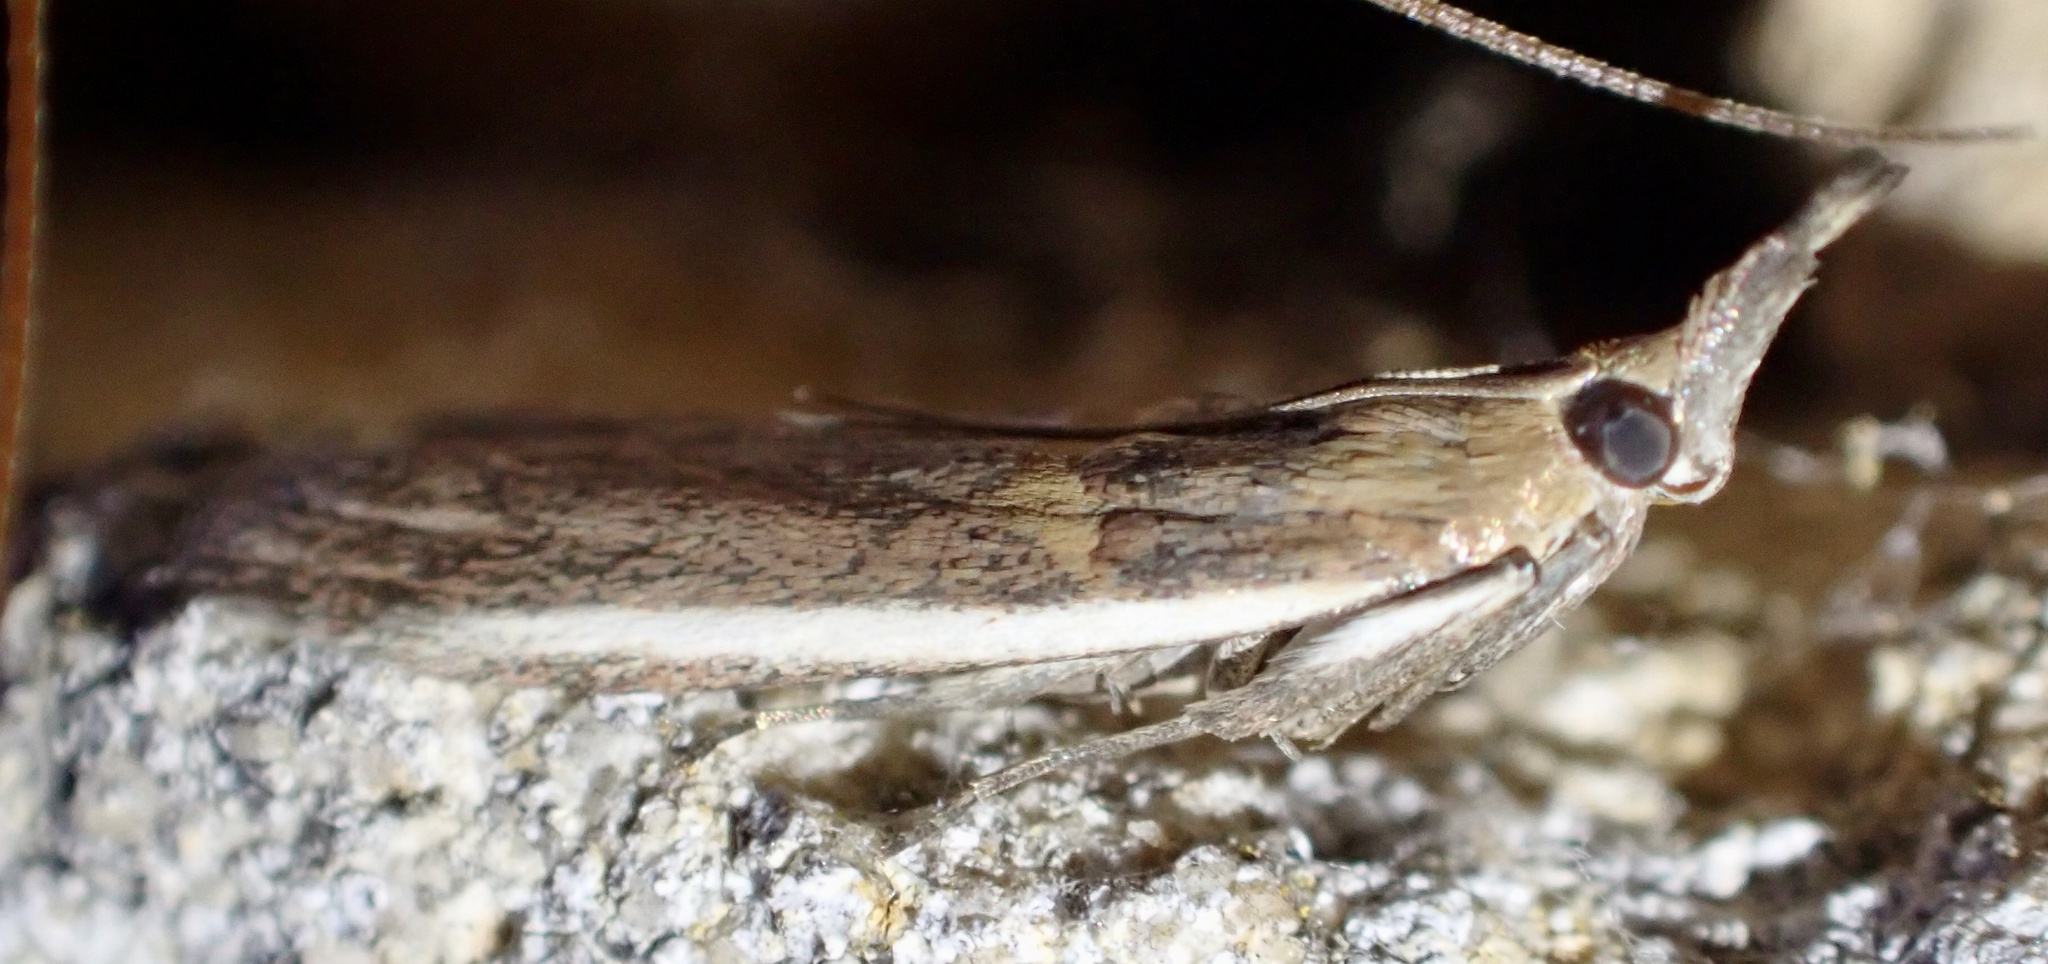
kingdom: Animalia
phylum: Arthropoda
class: Insecta
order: Lepidoptera
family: Pyralidae
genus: Etiella
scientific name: Etiella zinckenella
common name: Gold-banded etiella moth
